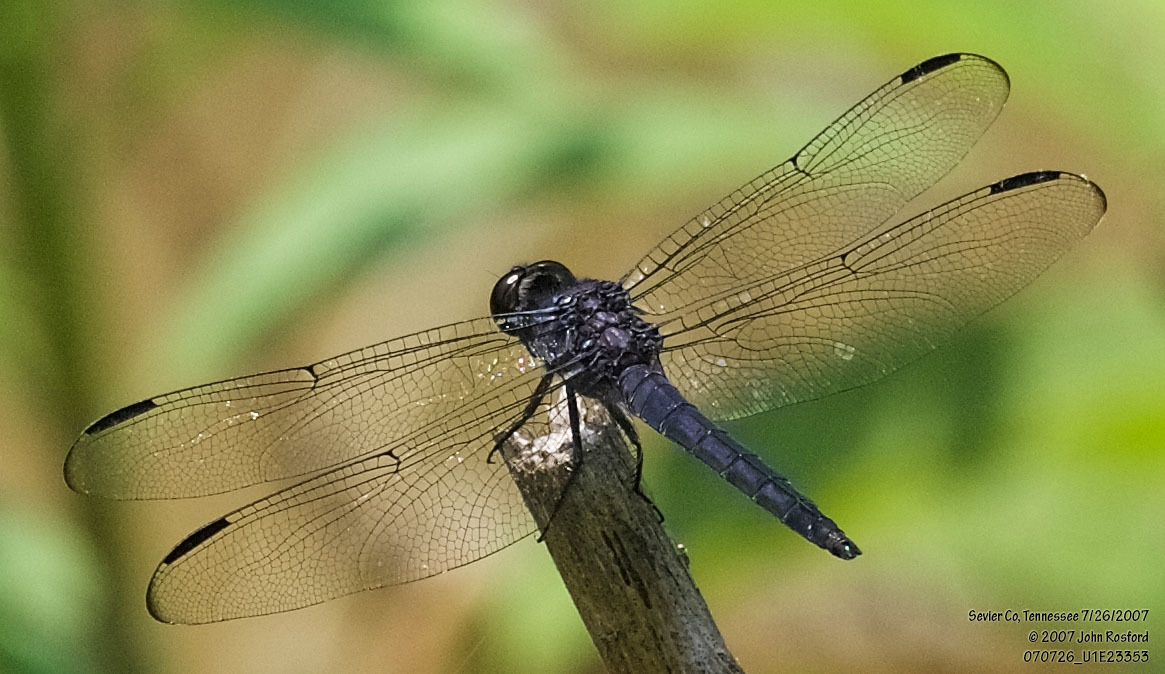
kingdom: Animalia
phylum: Arthropoda
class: Insecta
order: Odonata
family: Libellulidae
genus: Libellula
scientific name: Libellula incesta
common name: Slaty skimmer
